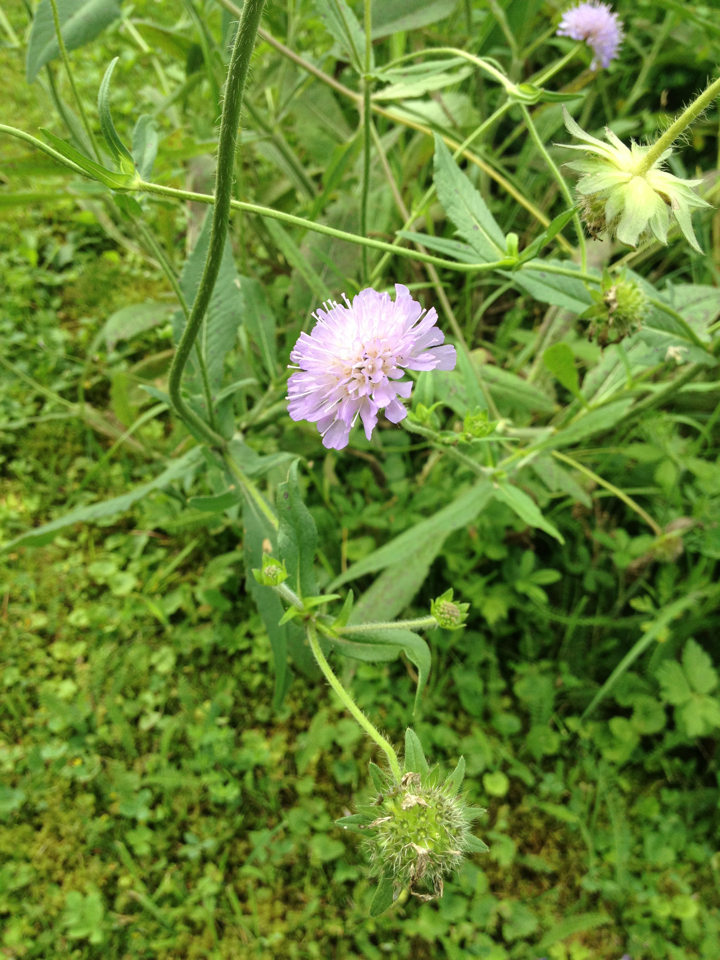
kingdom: Plantae
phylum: Tracheophyta
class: Magnoliopsida
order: Dipsacales
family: Caprifoliaceae
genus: Knautia
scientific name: Knautia arvensis
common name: Field scabiosa
